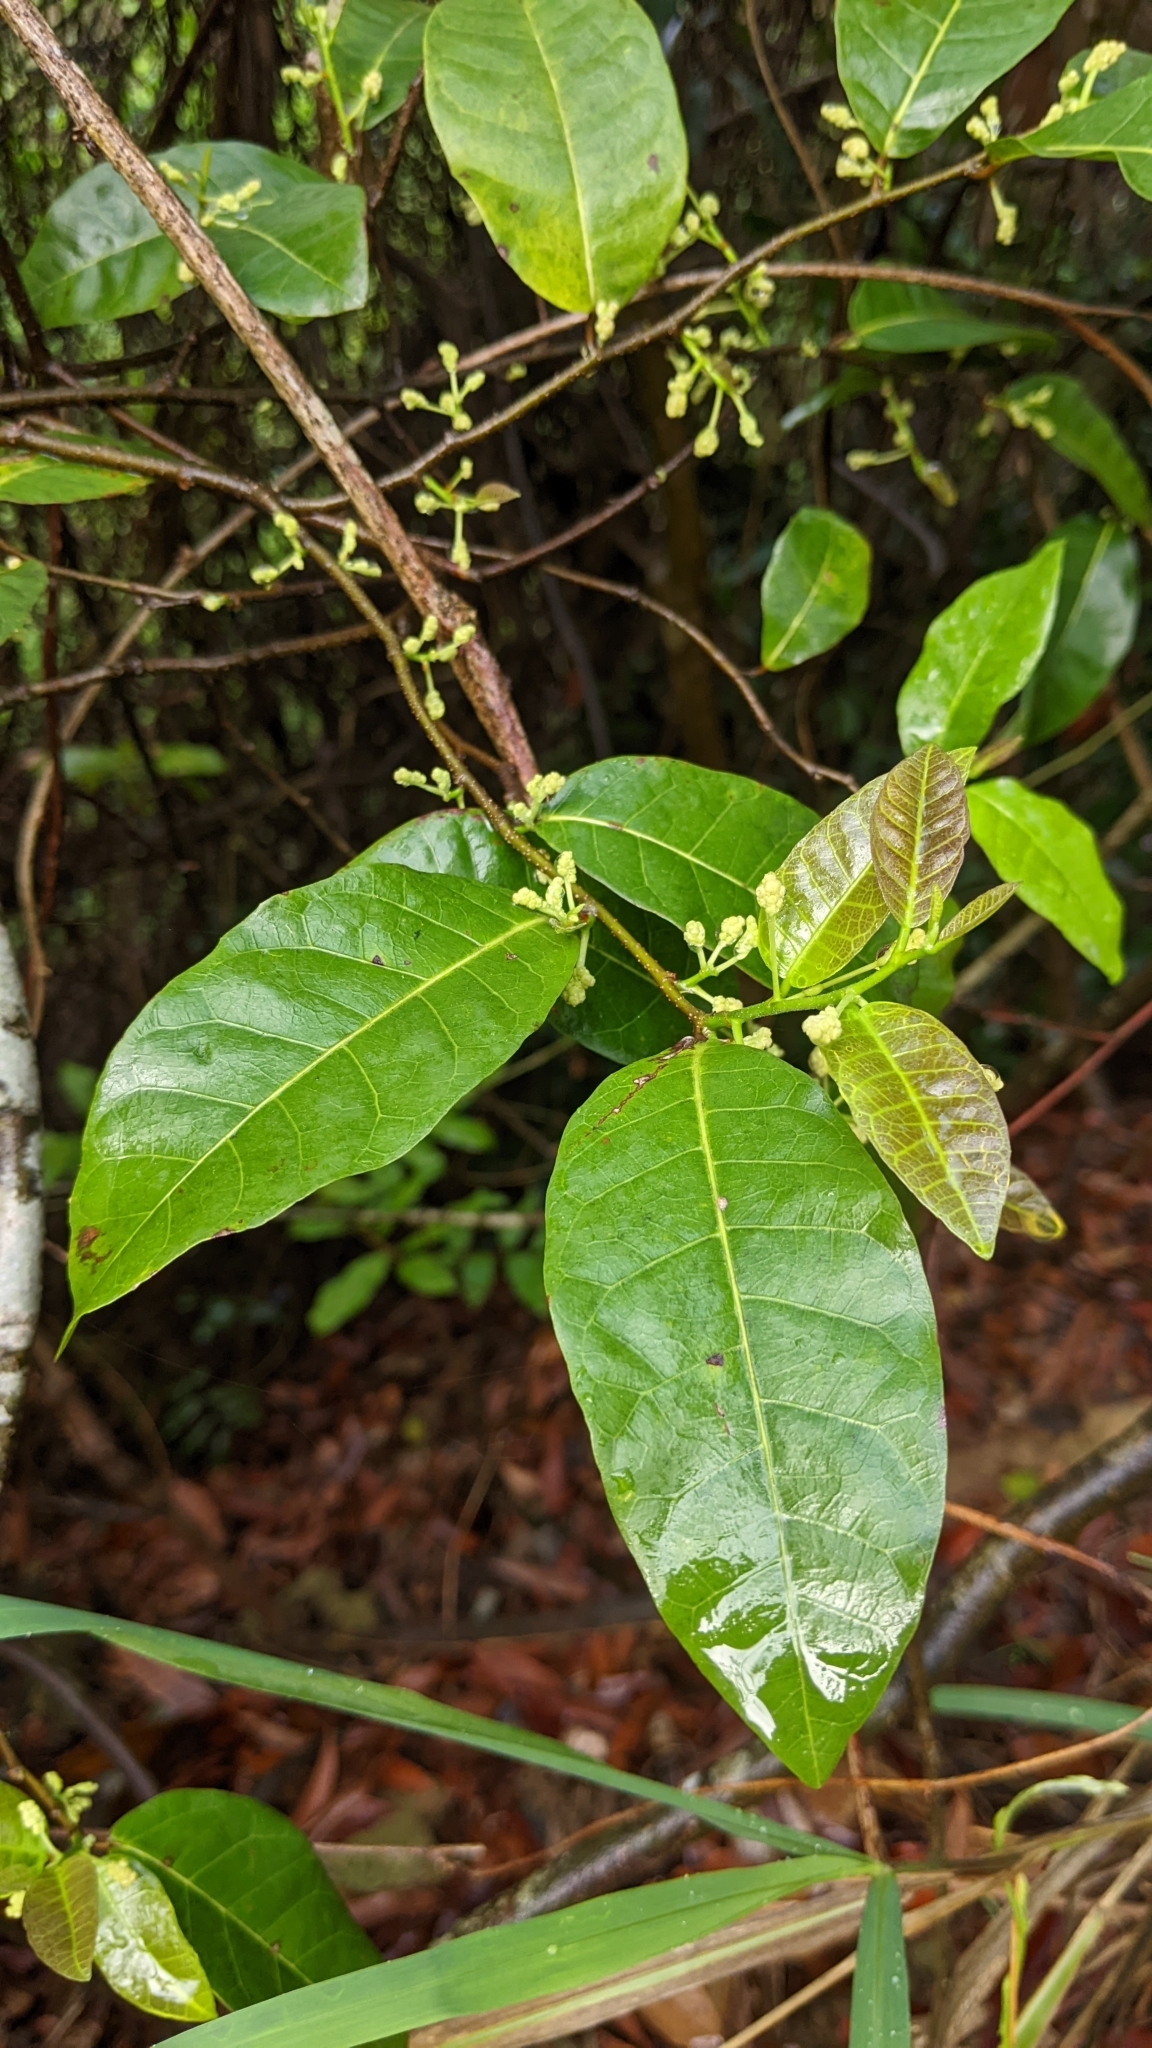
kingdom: Plantae
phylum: Tracheophyta
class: Magnoliopsida
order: Rosales
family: Moraceae
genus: Malaisia
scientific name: Malaisia scandens
